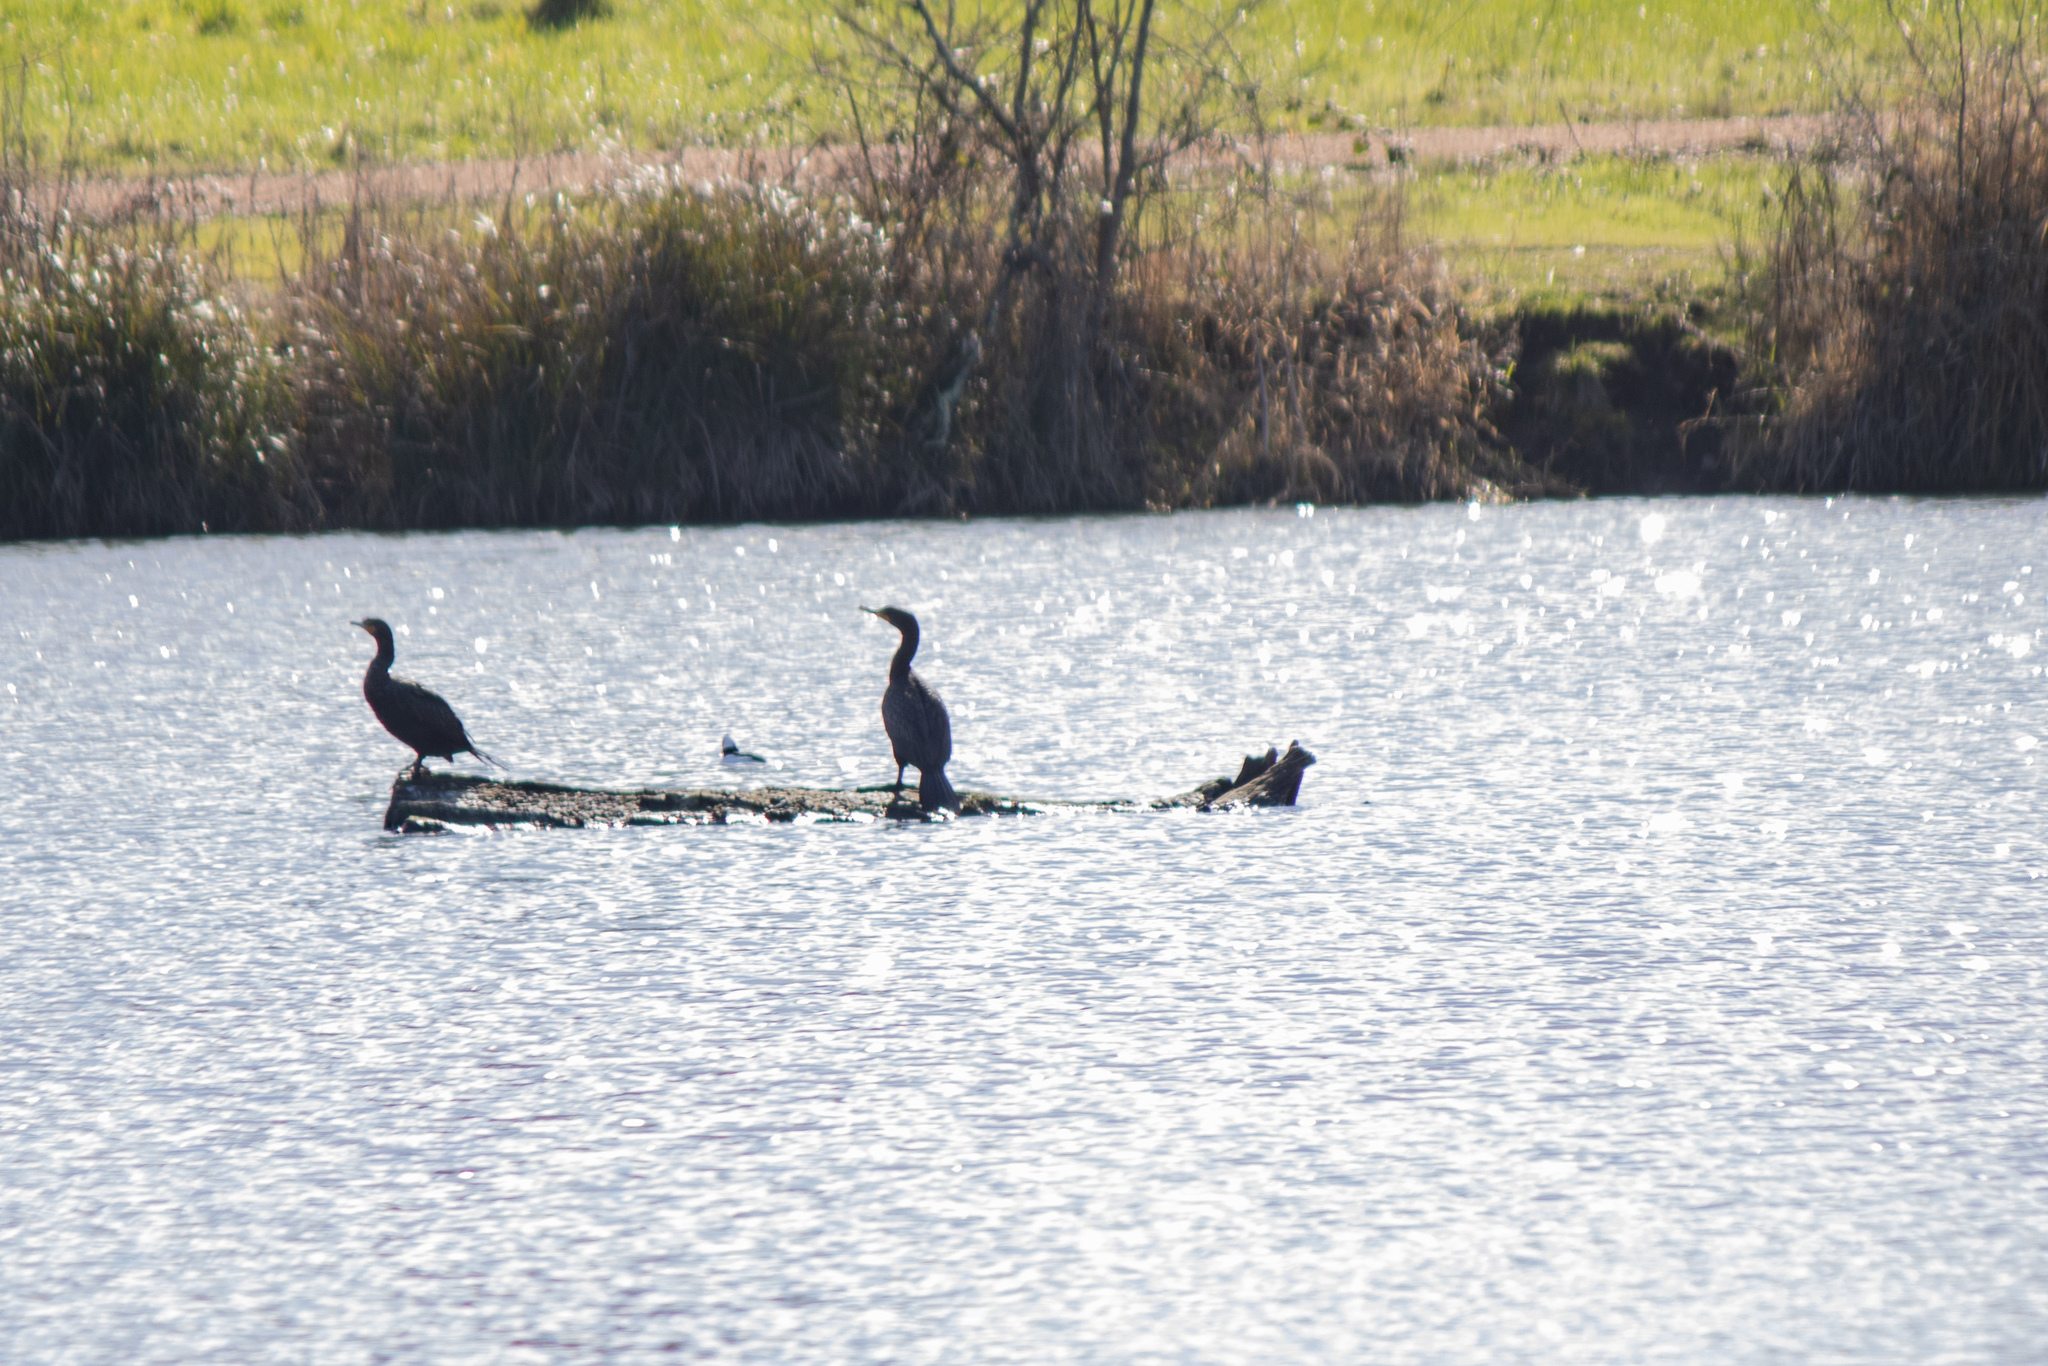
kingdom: Animalia
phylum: Chordata
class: Aves
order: Suliformes
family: Phalacrocoracidae
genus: Phalacrocorax
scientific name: Phalacrocorax auritus
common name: Double-crested cormorant
